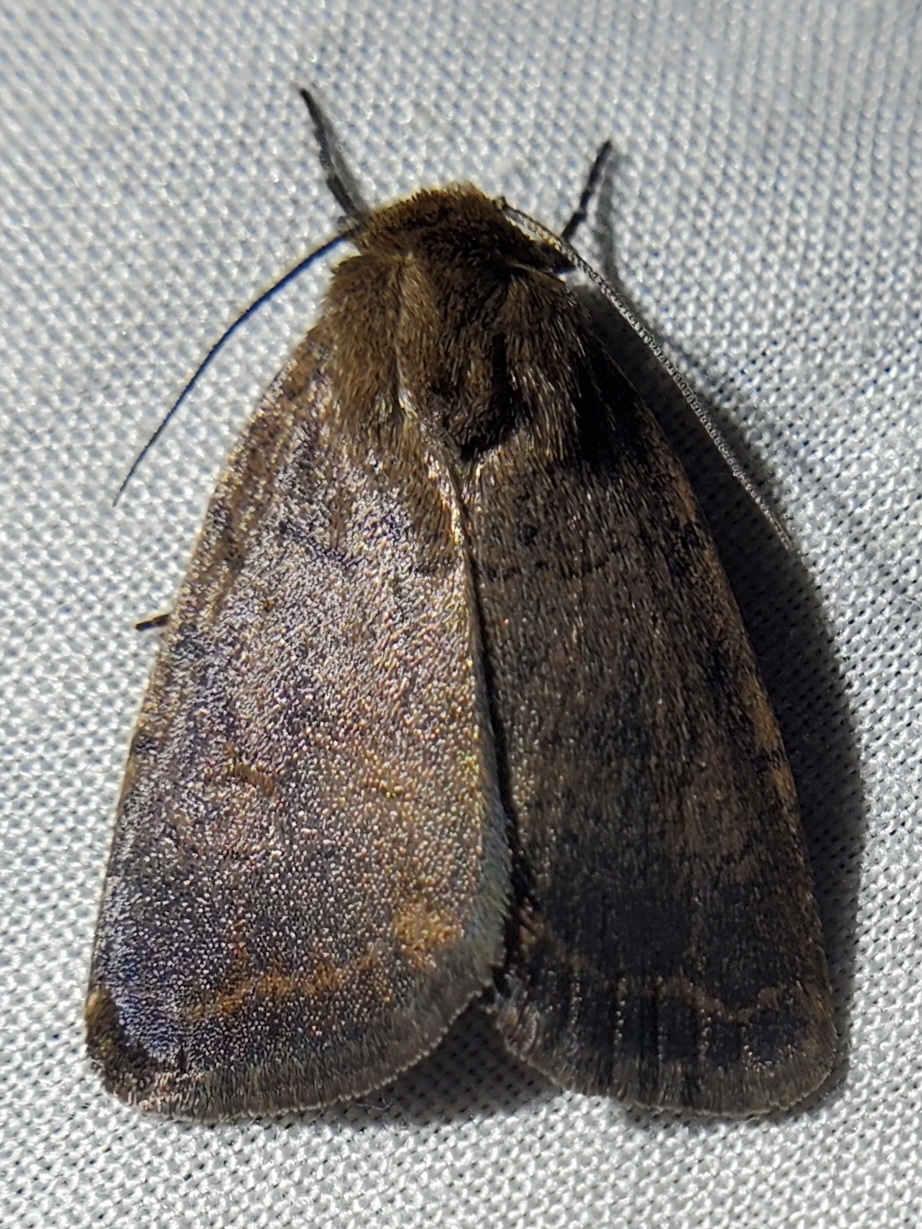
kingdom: Animalia
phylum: Arthropoda
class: Insecta
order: Lepidoptera
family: Noctuidae
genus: Athetis
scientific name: Athetis tarda
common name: Slowpoke moth
